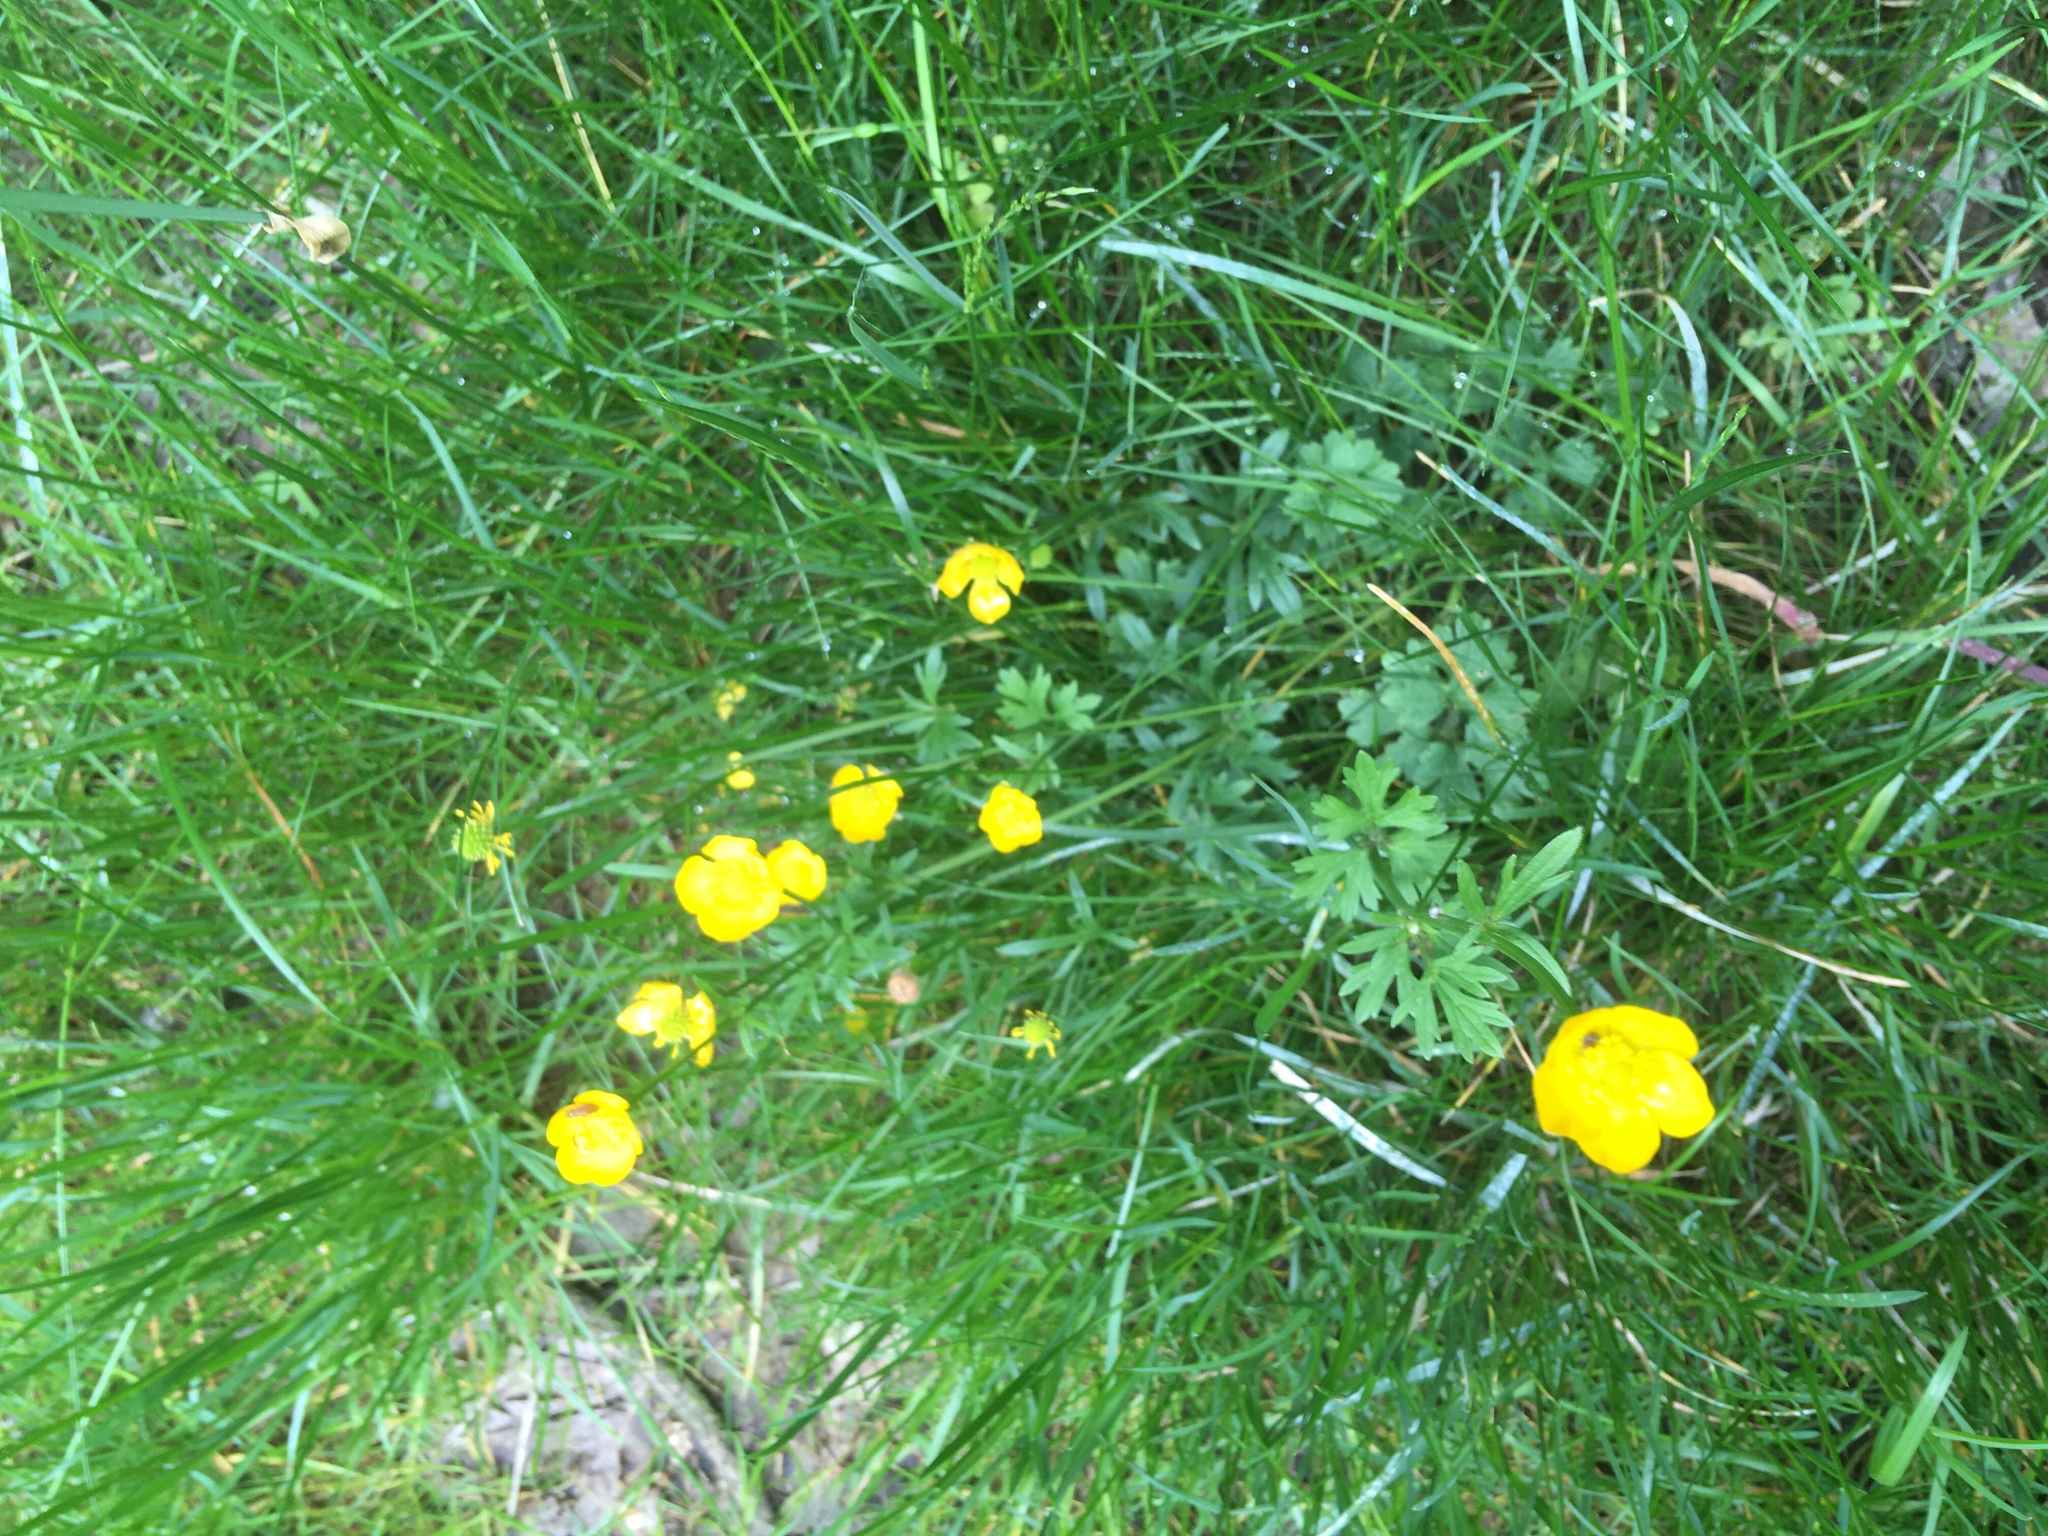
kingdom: Plantae
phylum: Tracheophyta
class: Magnoliopsida
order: Ranunculales
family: Ranunculaceae
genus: Ranunculus
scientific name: Ranunculus repens
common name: Creeping buttercup
